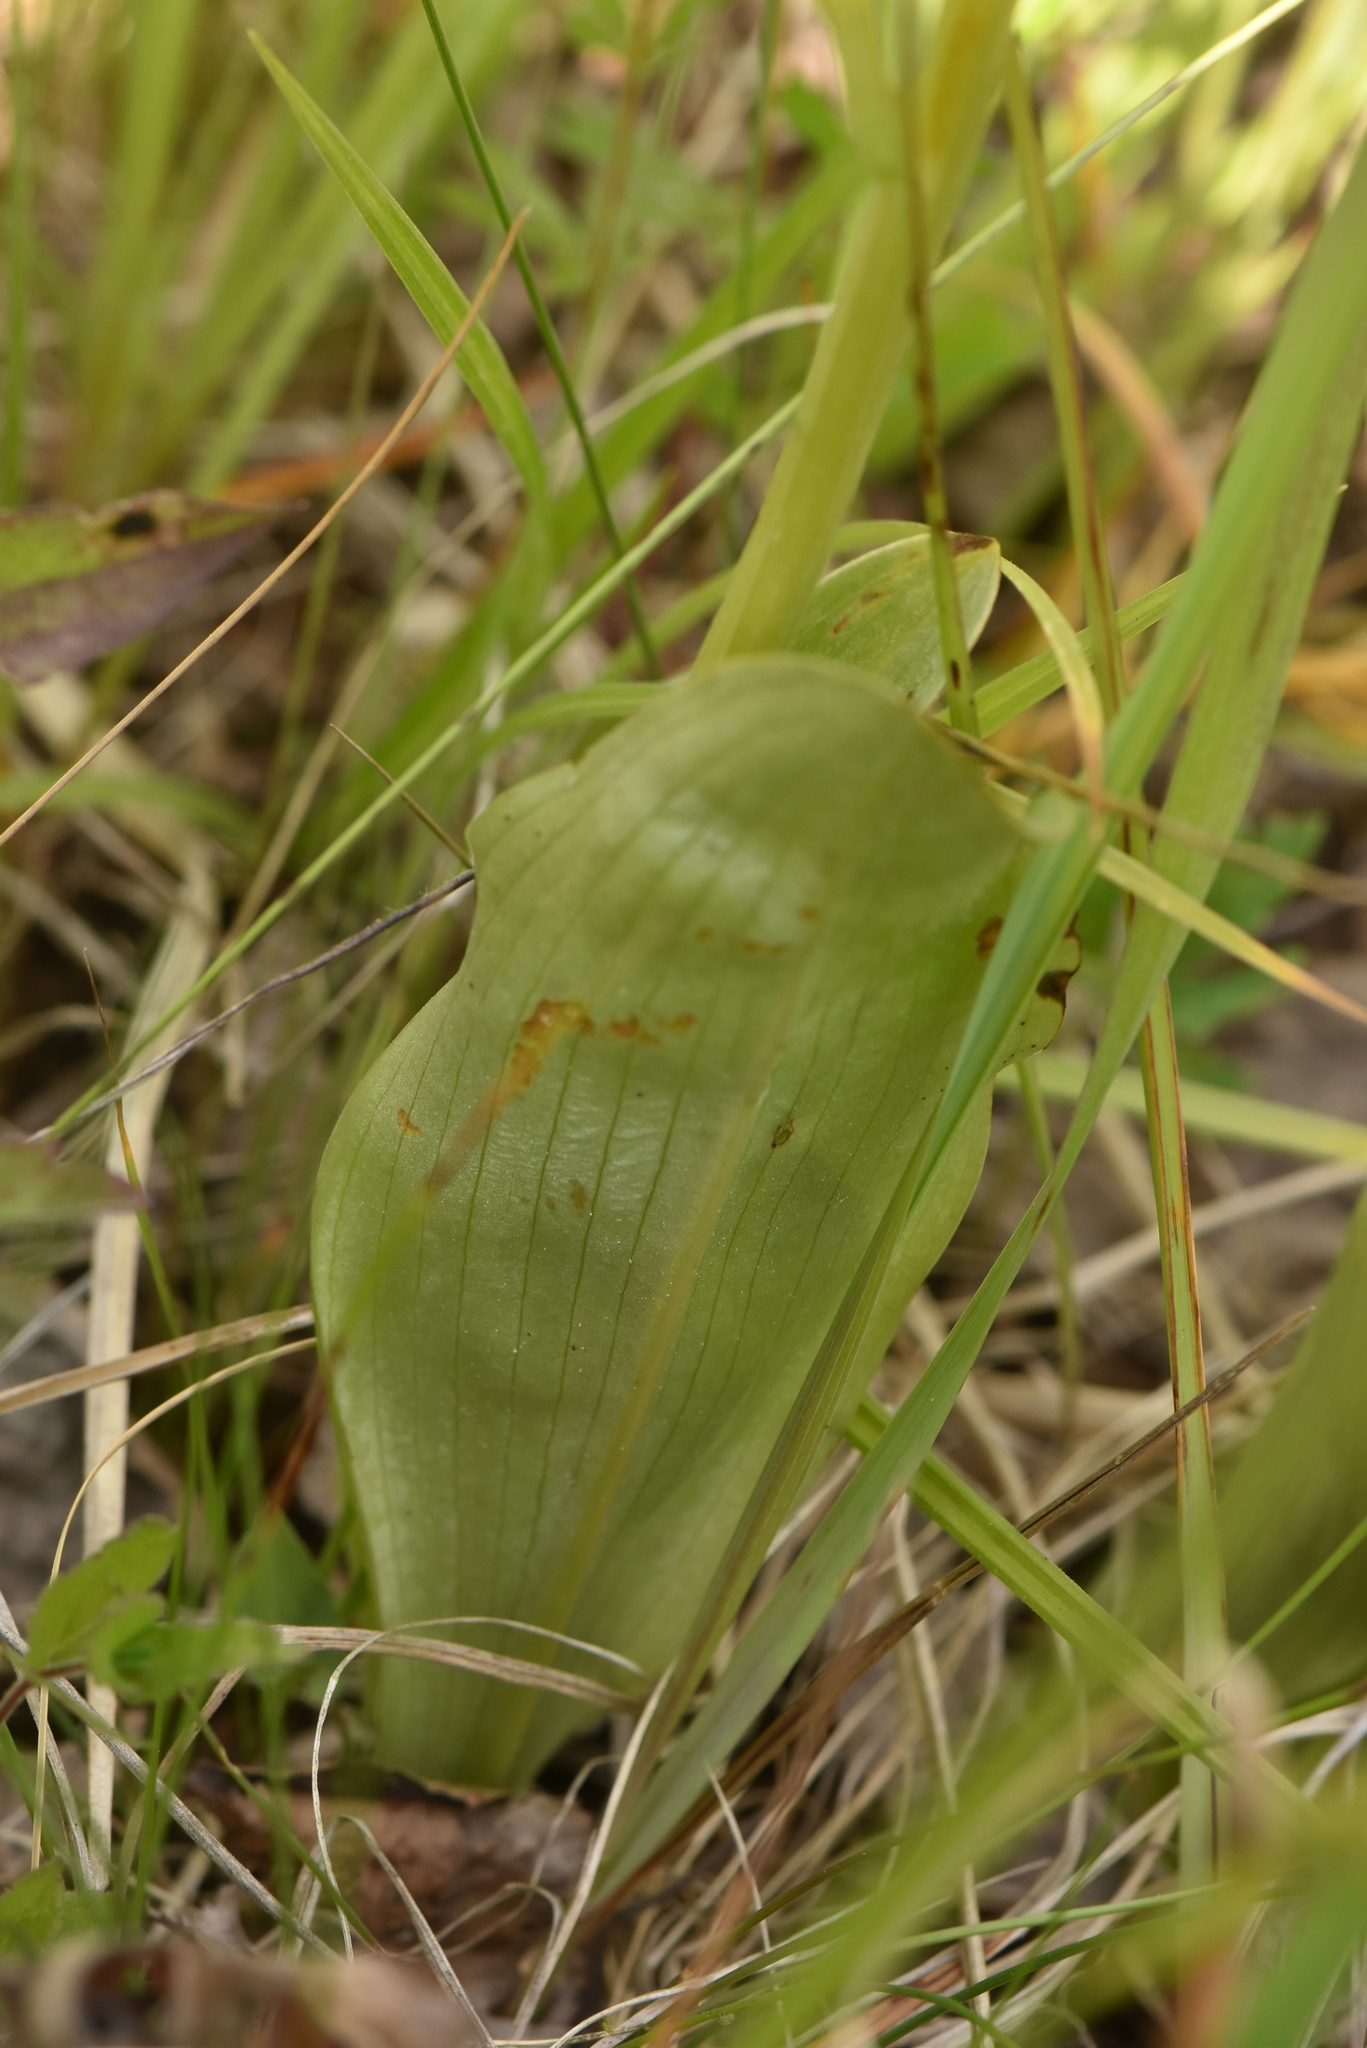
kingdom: Plantae
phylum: Tracheophyta
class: Liliopsida
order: Asparagales
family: Orchidaceae
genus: Platanthera
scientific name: Platanthera bifolia
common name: Lesser butterfly-orchid
